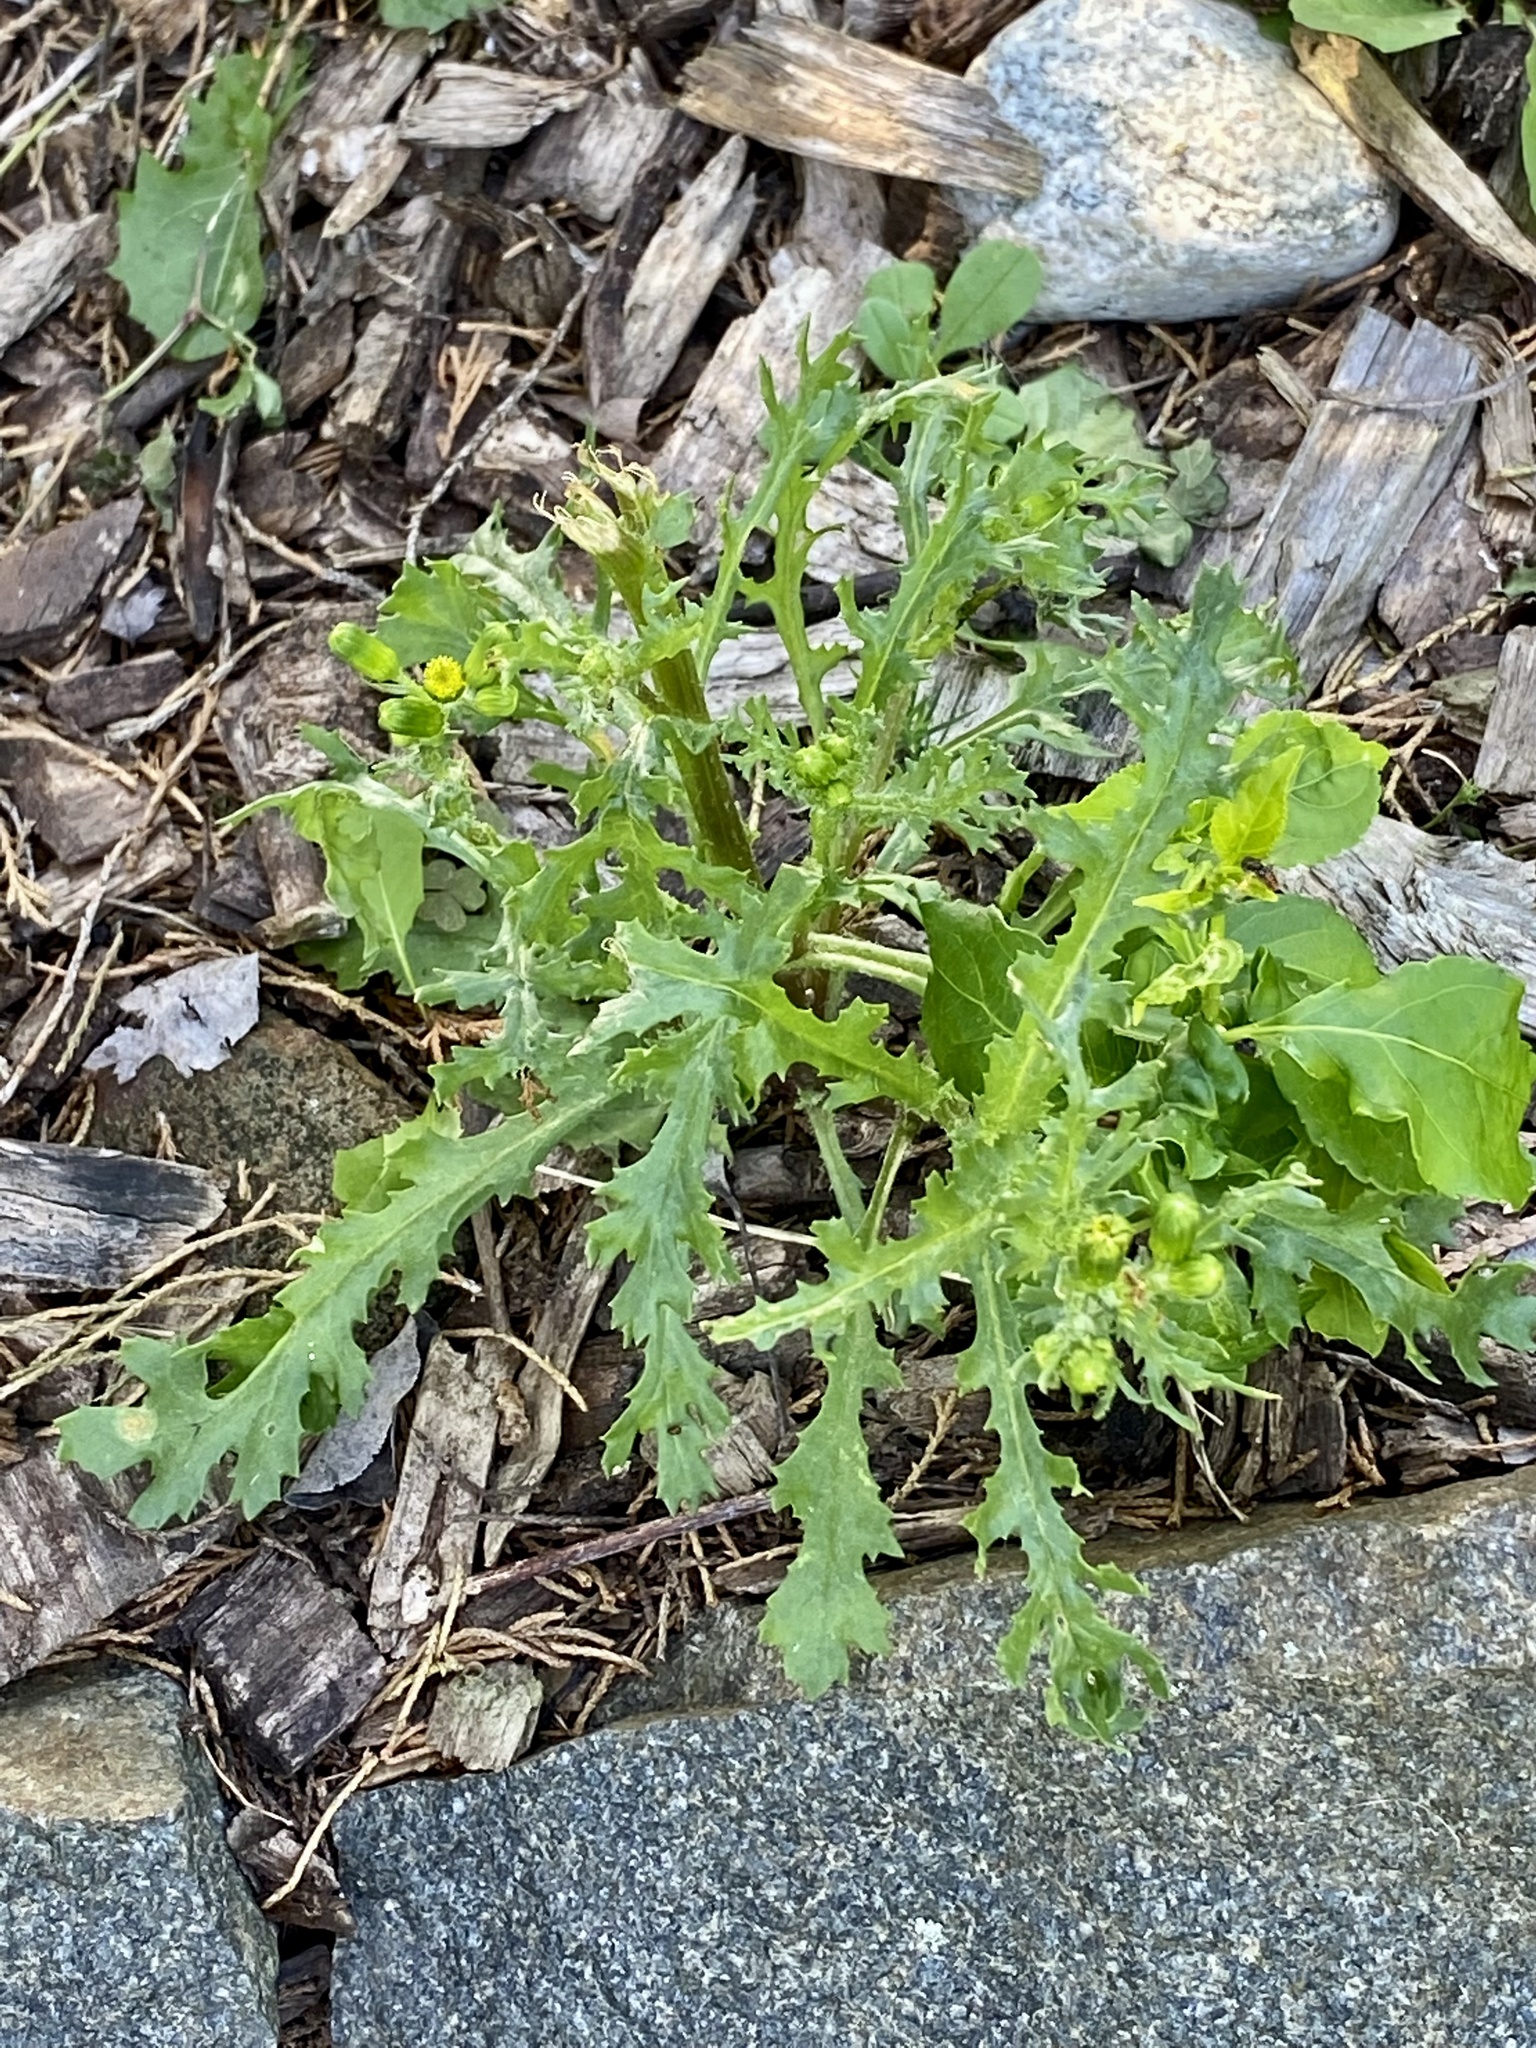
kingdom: Plantae
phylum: Tracheophyta
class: Magnoliopsida
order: Asterales
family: Asteraceae
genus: Senecio
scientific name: Senecio vulgaris
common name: Old-man-in-the-spring
